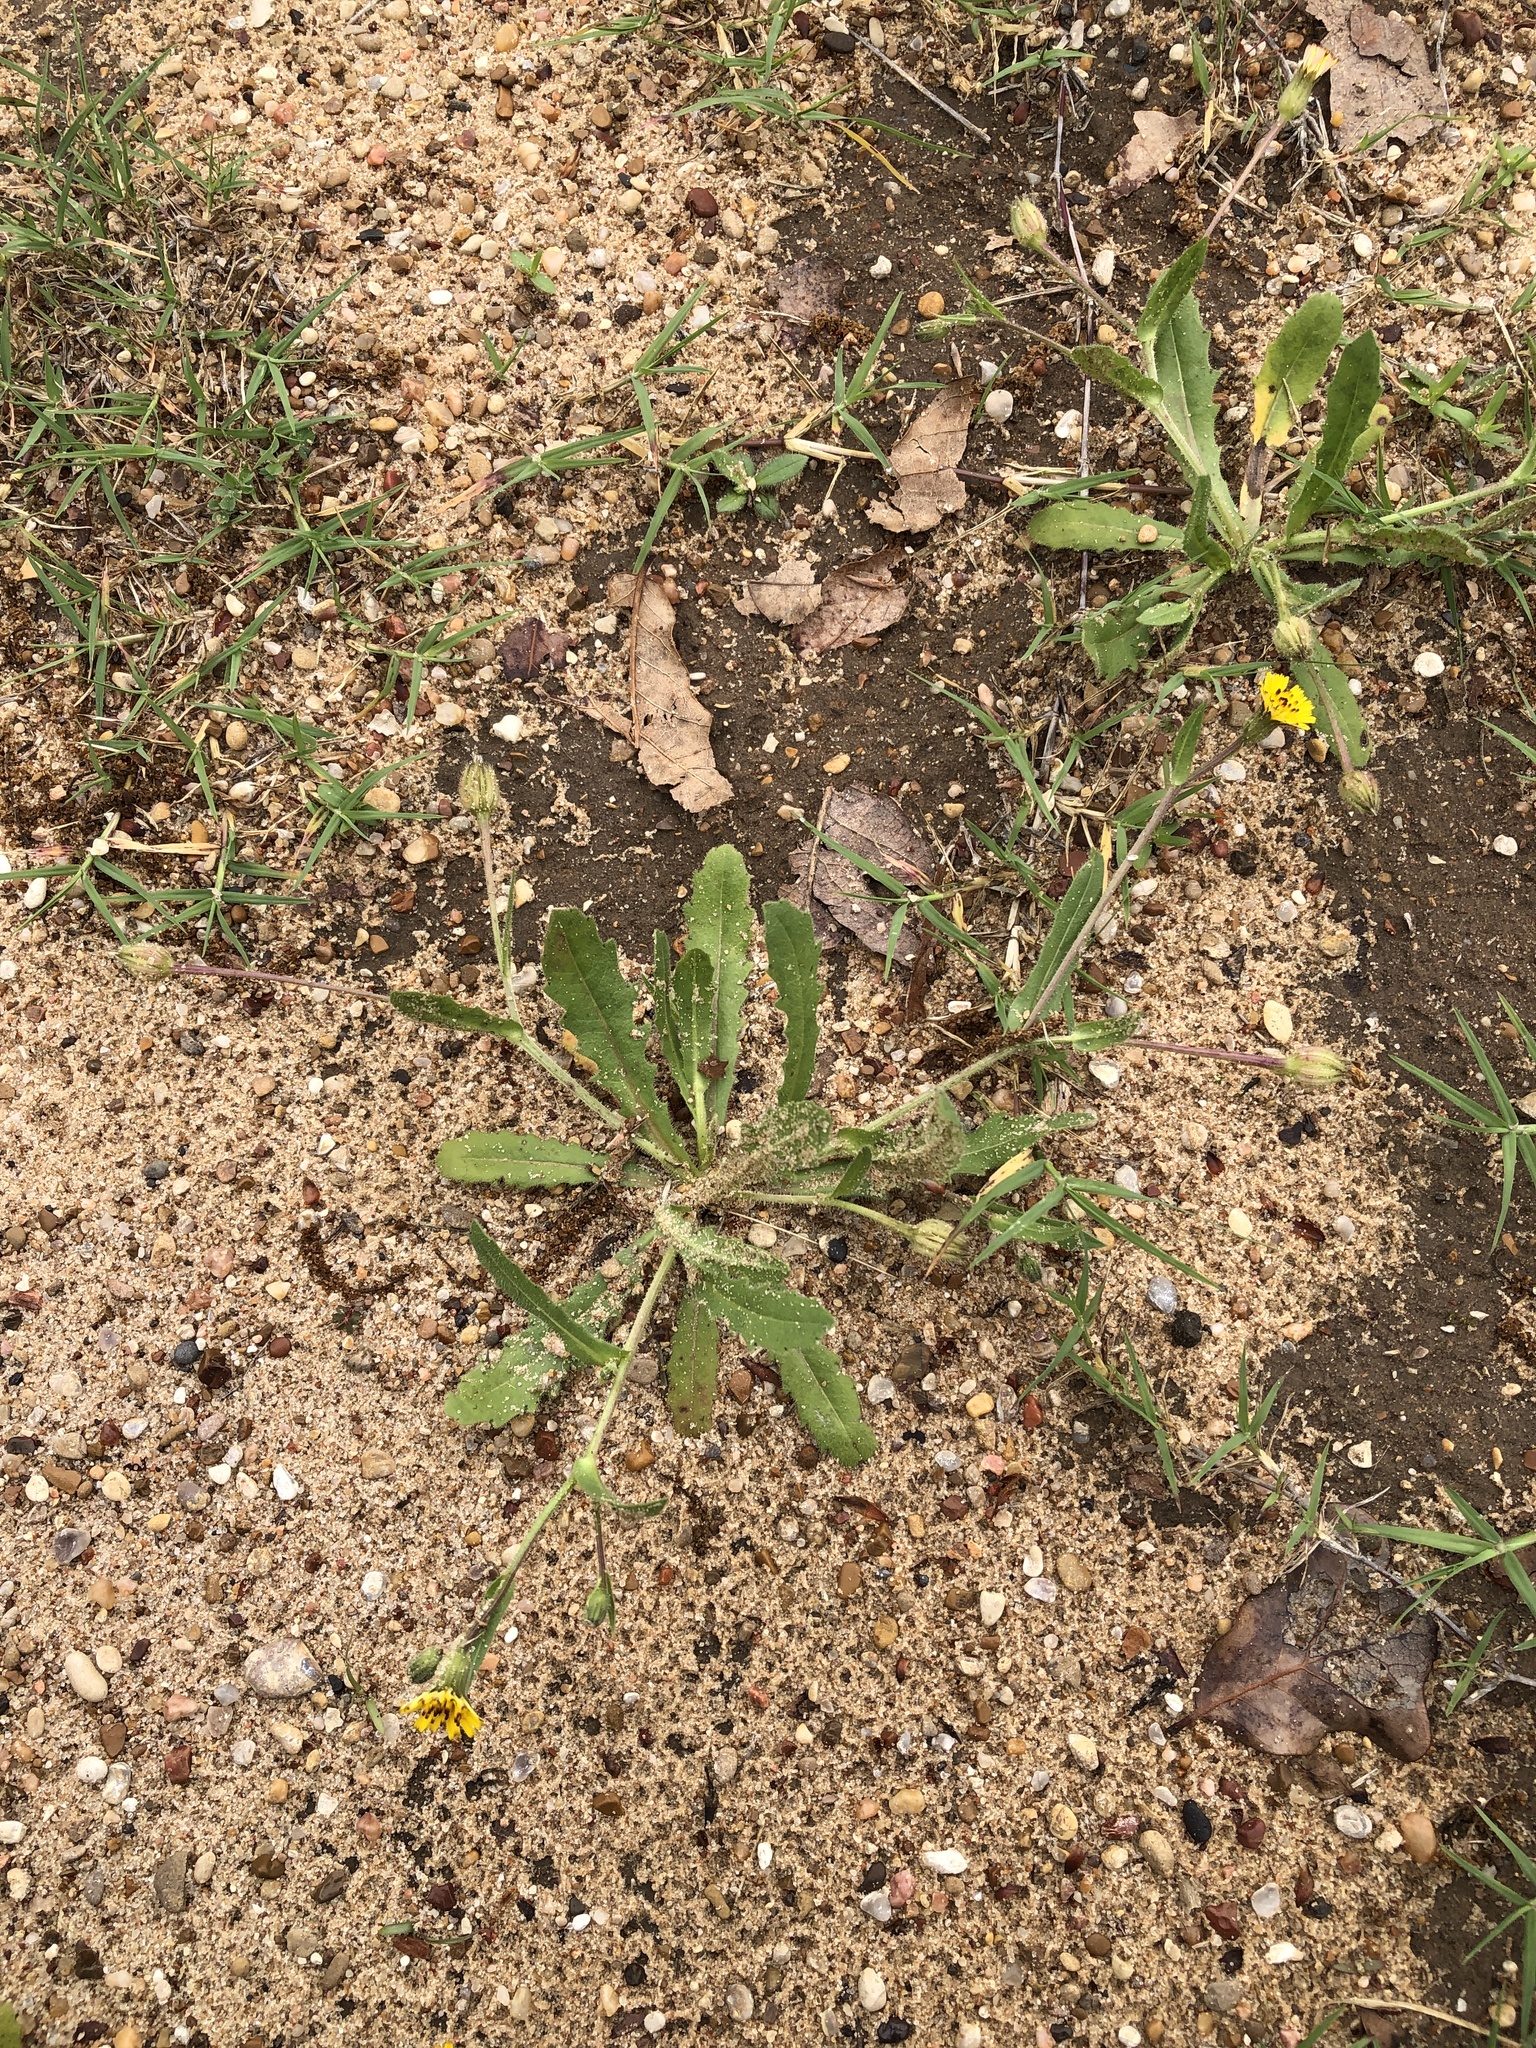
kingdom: Plantae
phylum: Tracheophyta
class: Magnoliopsida
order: Asterales
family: Asteraceae
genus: Hedypnois
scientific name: Hedypnois rhagadioloides
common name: Cretan weed
